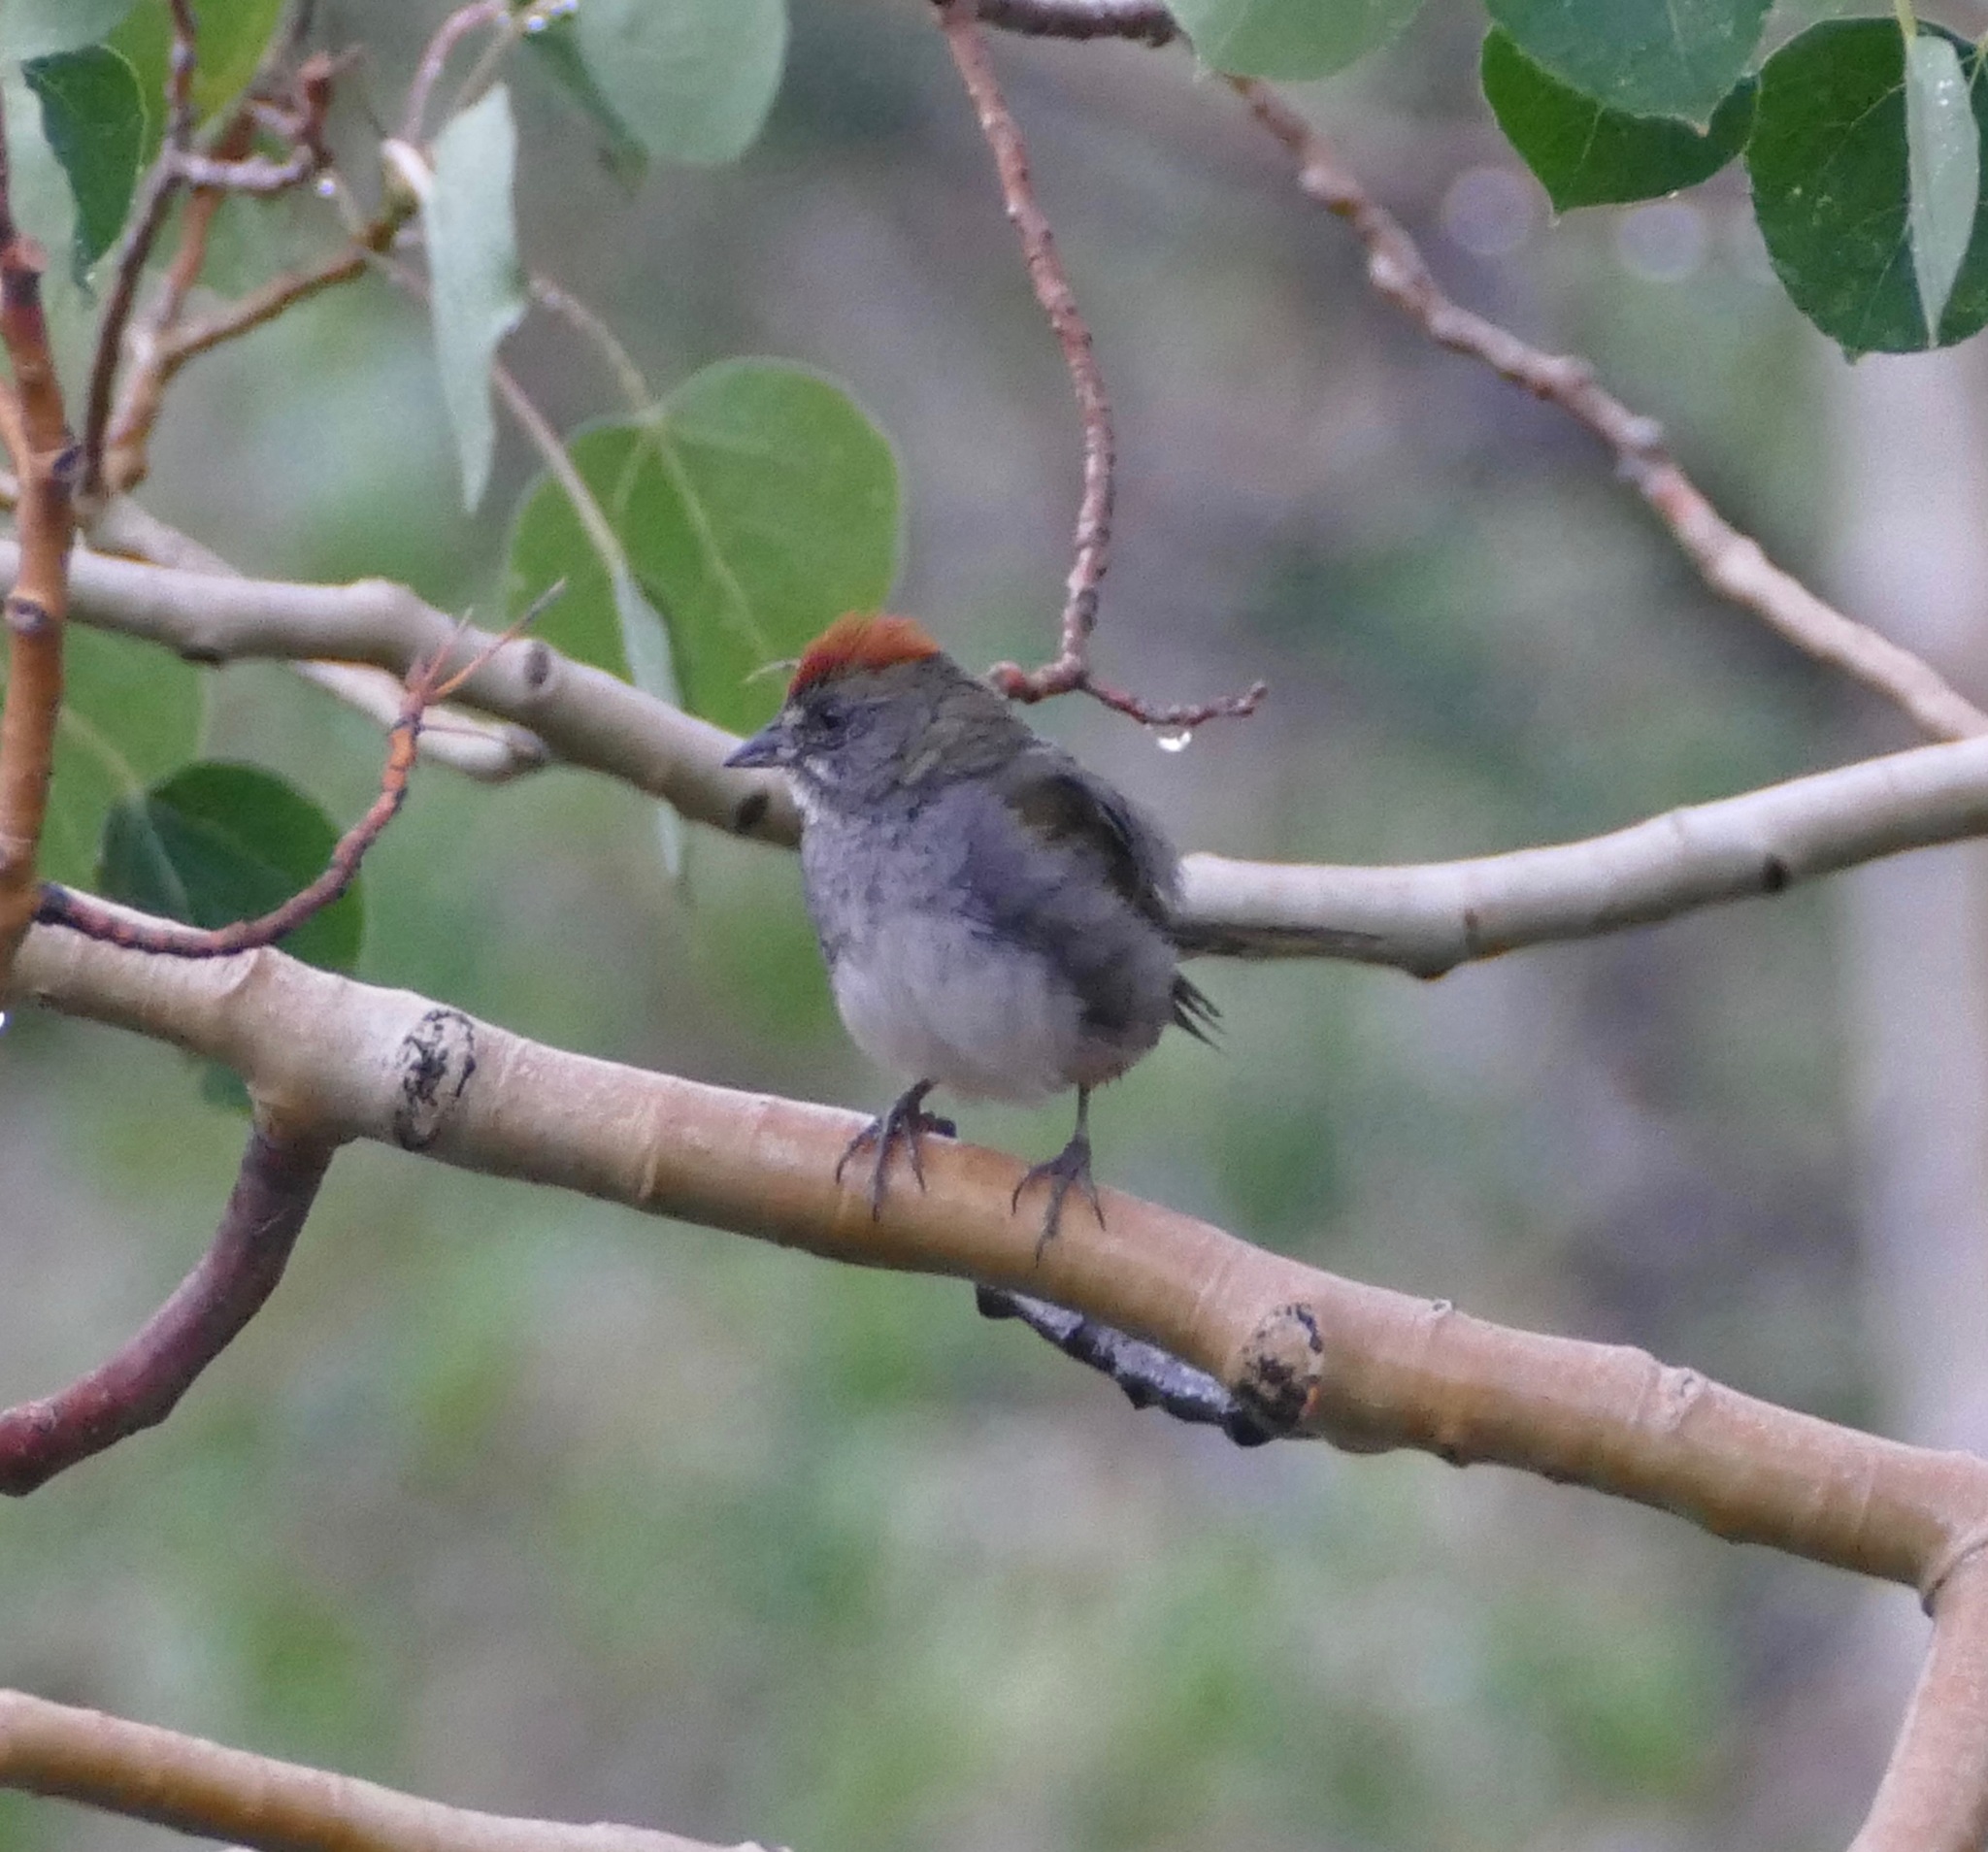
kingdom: Animalia
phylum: Chordata
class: Aves
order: Passeriformes
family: Passerellidae
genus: Pipilo
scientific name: Pipilo chlorurus
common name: Green-tailed towhee
